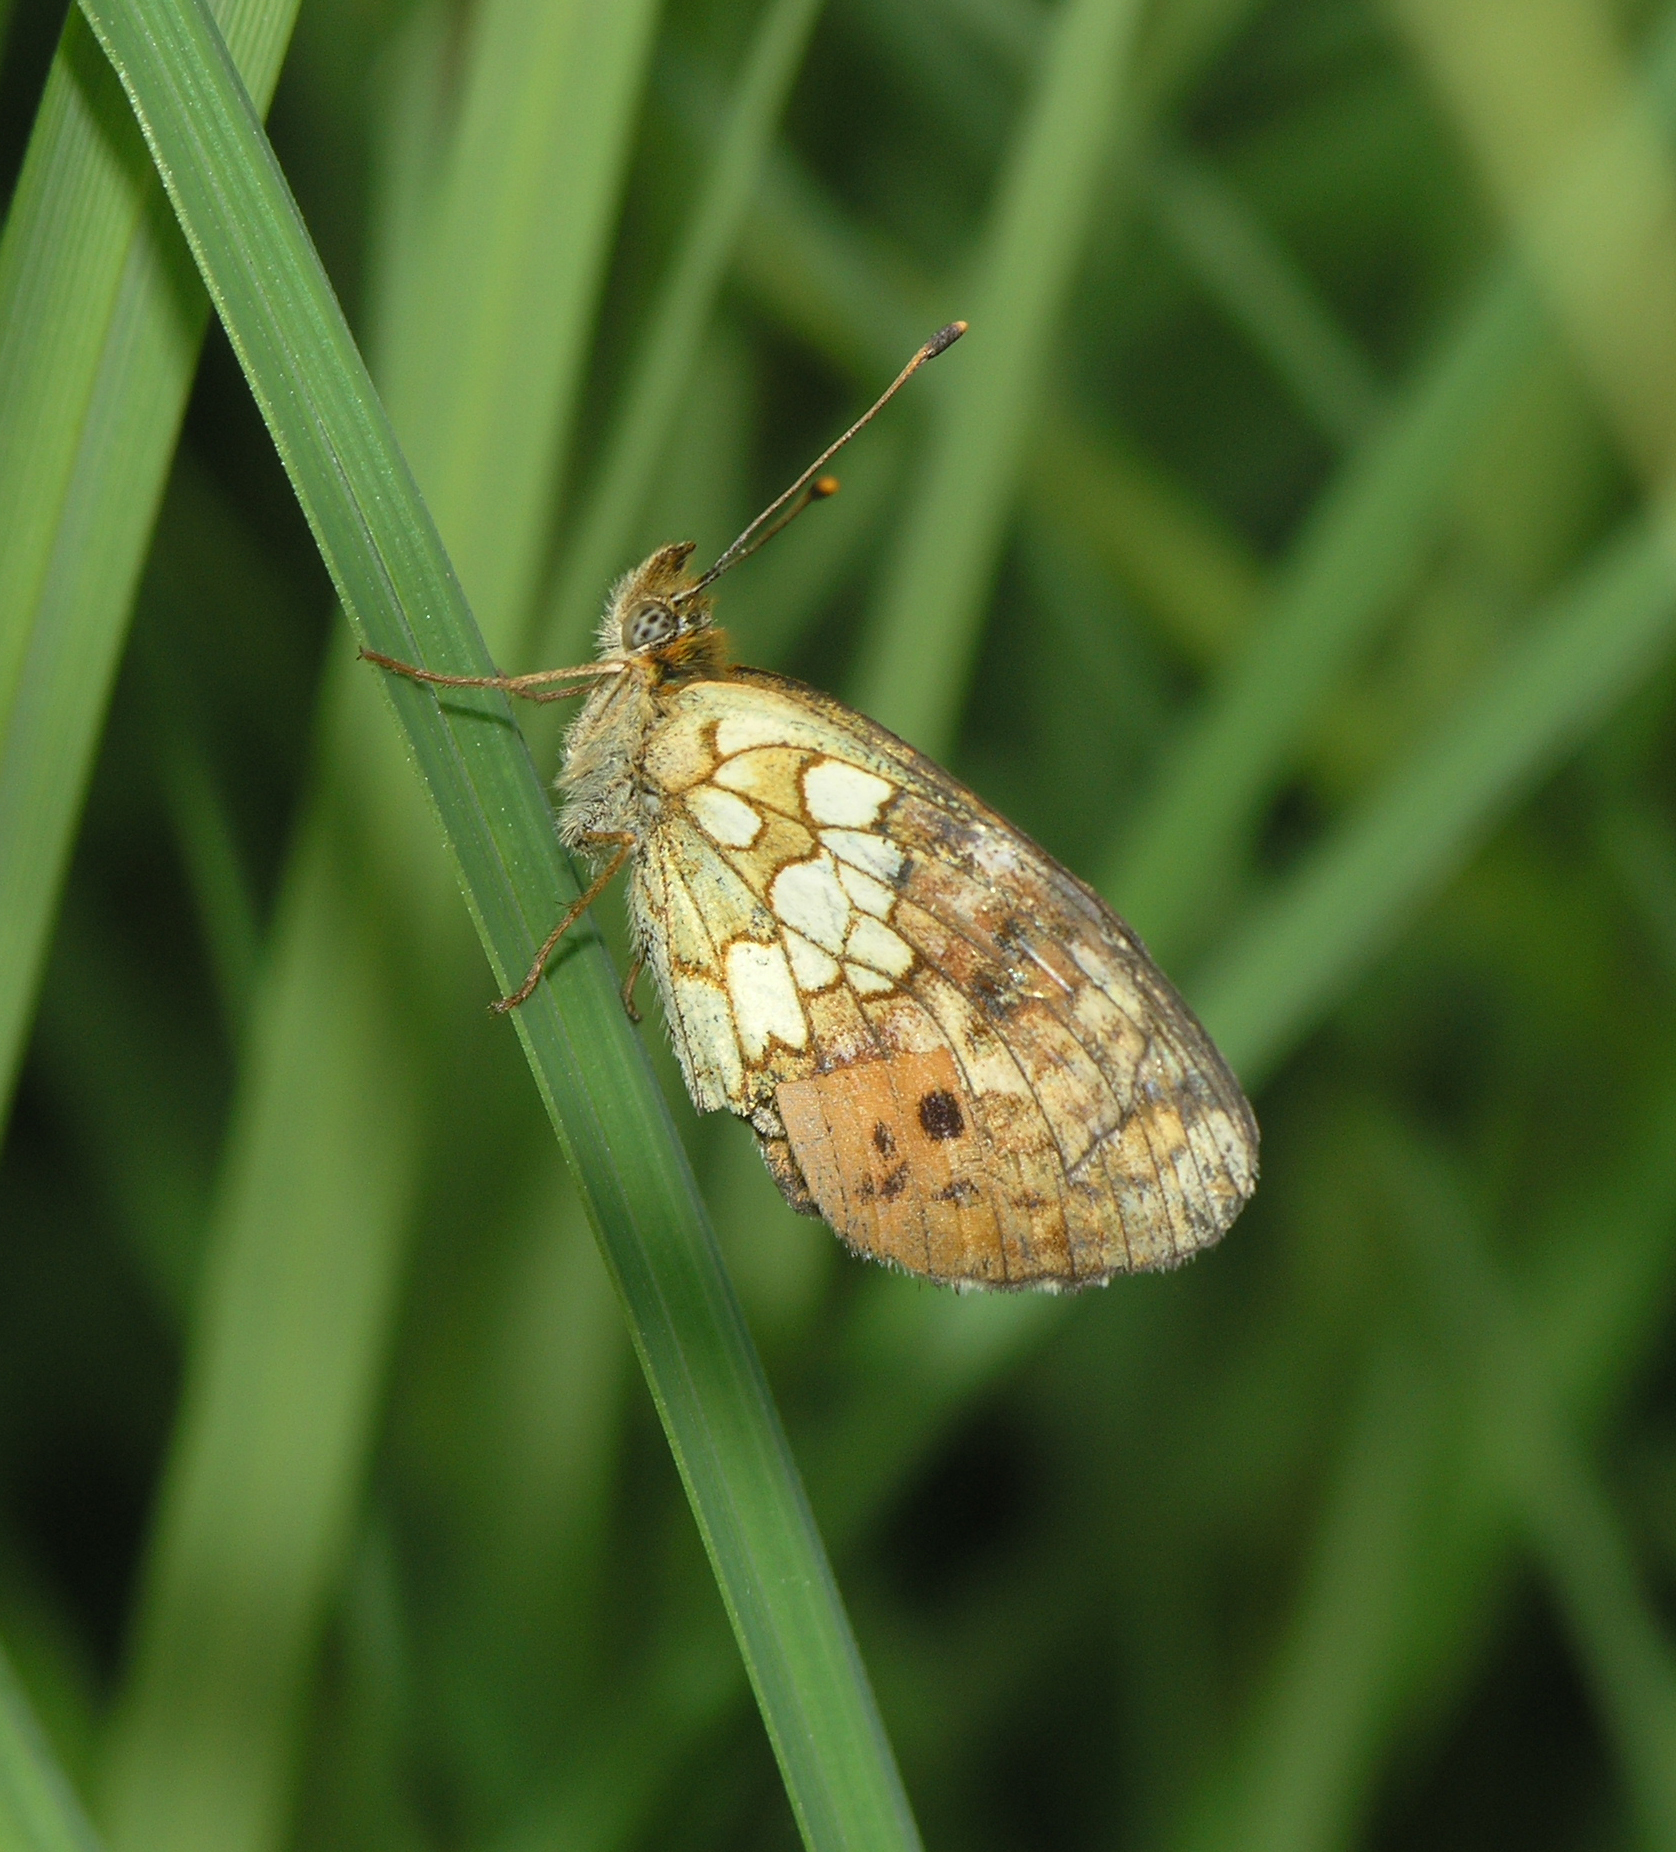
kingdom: Animalia
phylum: Arthropoda
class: Insecta
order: Lepidoptera
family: Nymphalidae
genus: Brenthis
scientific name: Brenthis ino
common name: Lesser marbled fritillary
